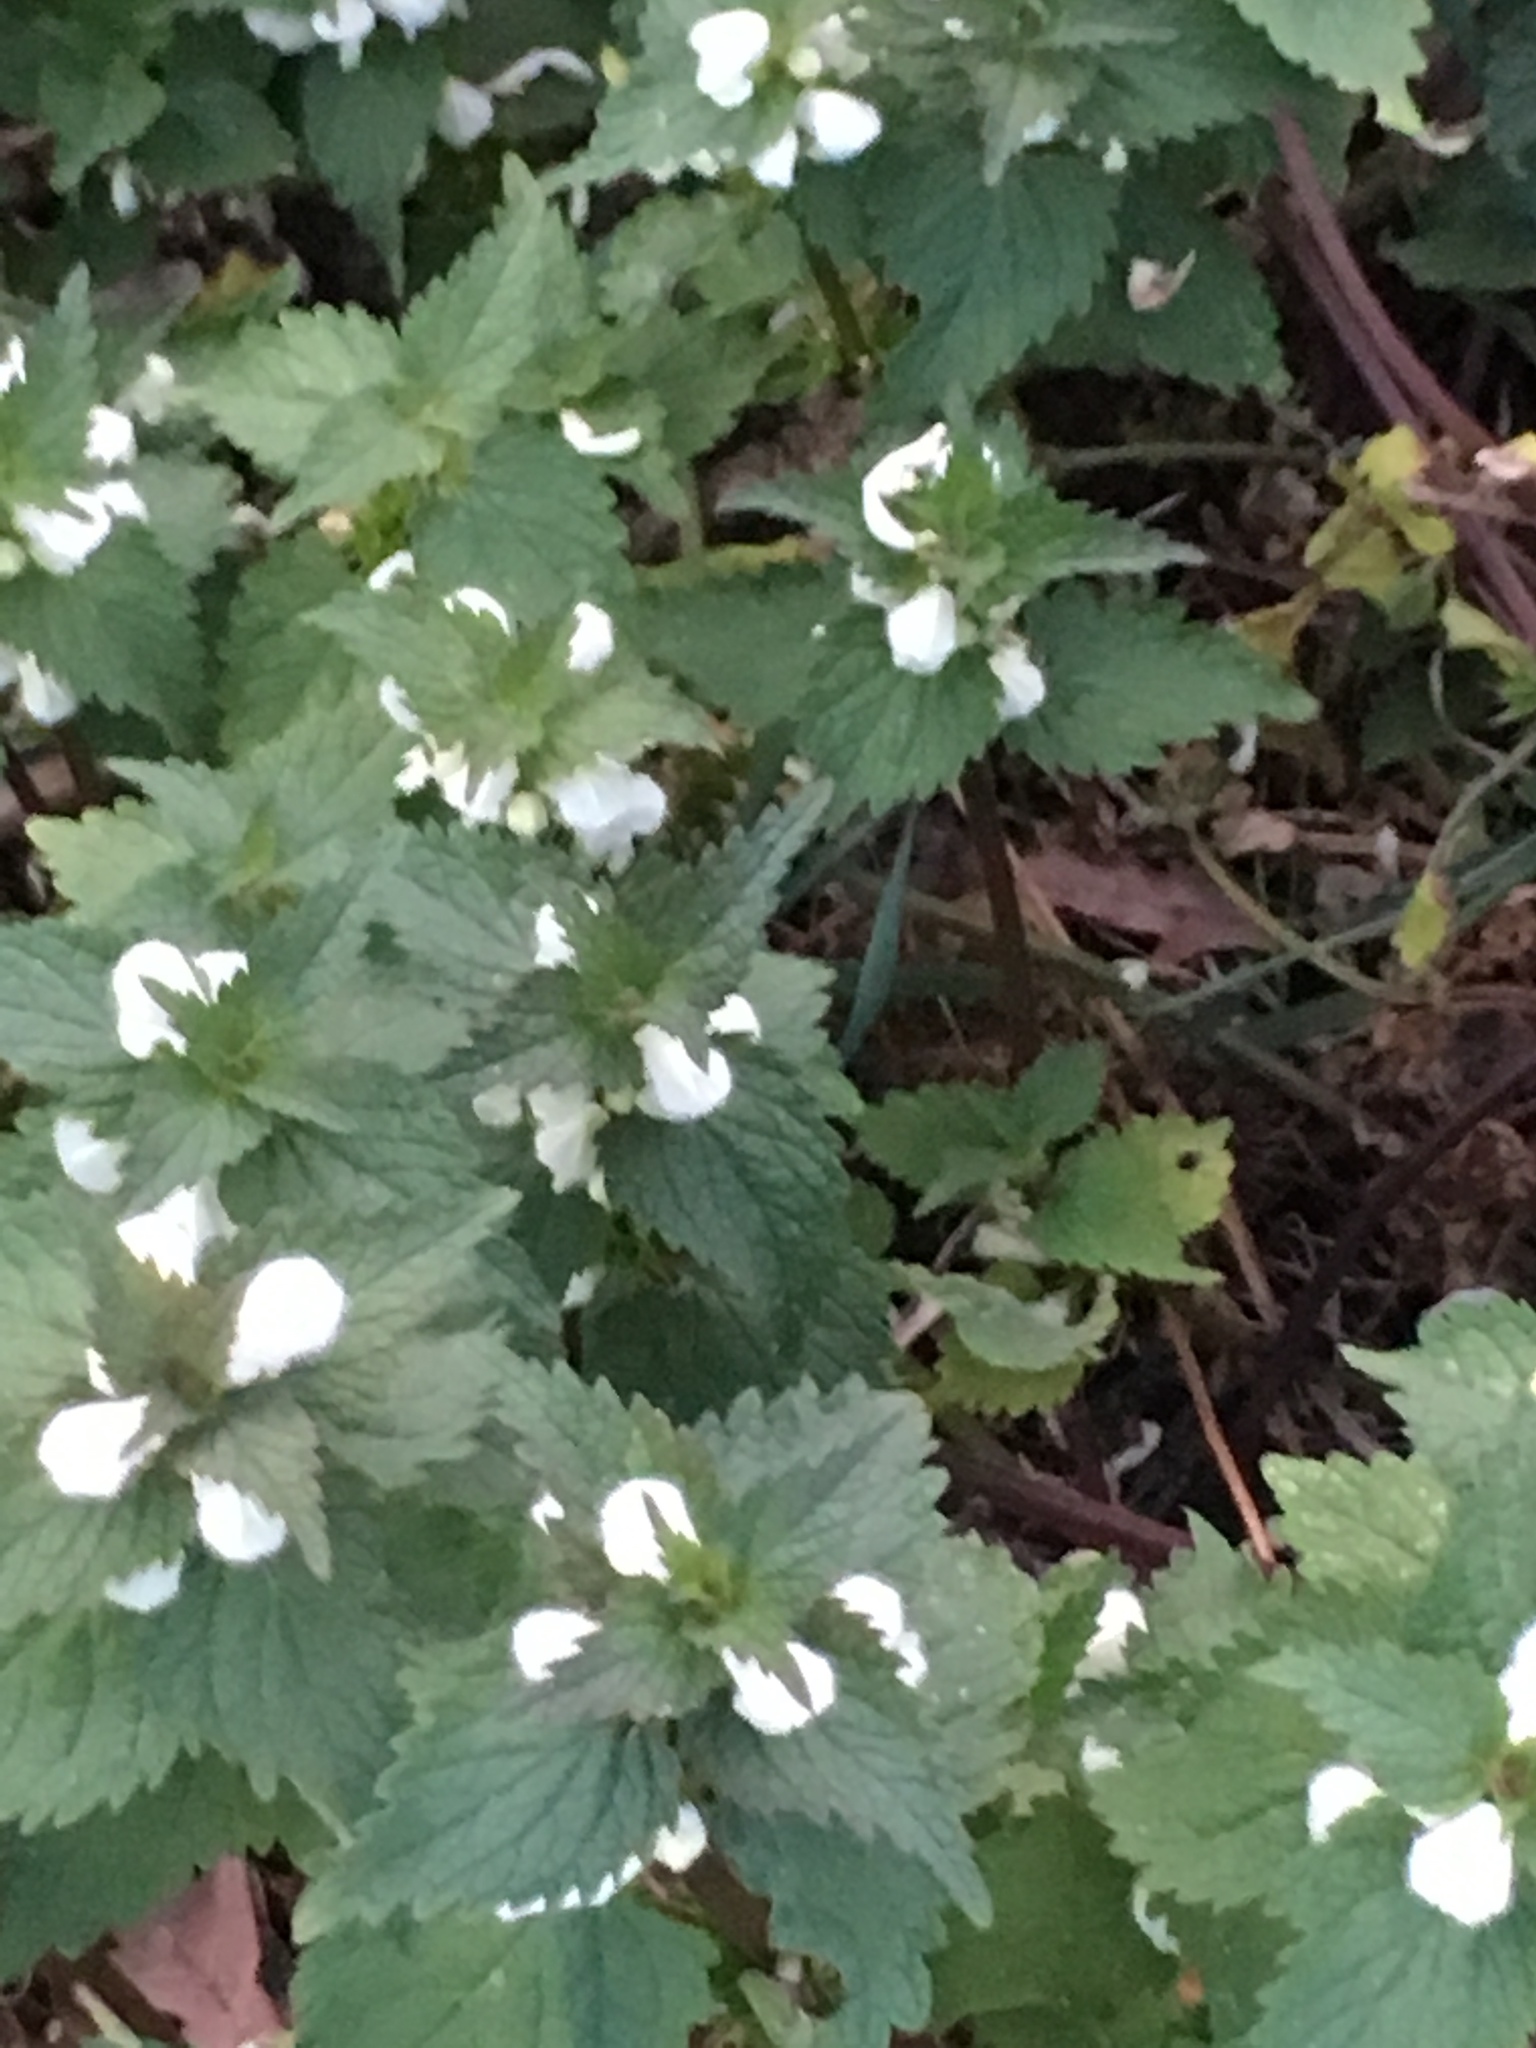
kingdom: Plantae
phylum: Tracheophyta
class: Magnoliopsida
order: Lamiales
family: Lamiaceae
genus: Lamium
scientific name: Lamium album
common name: White dead-nettle
